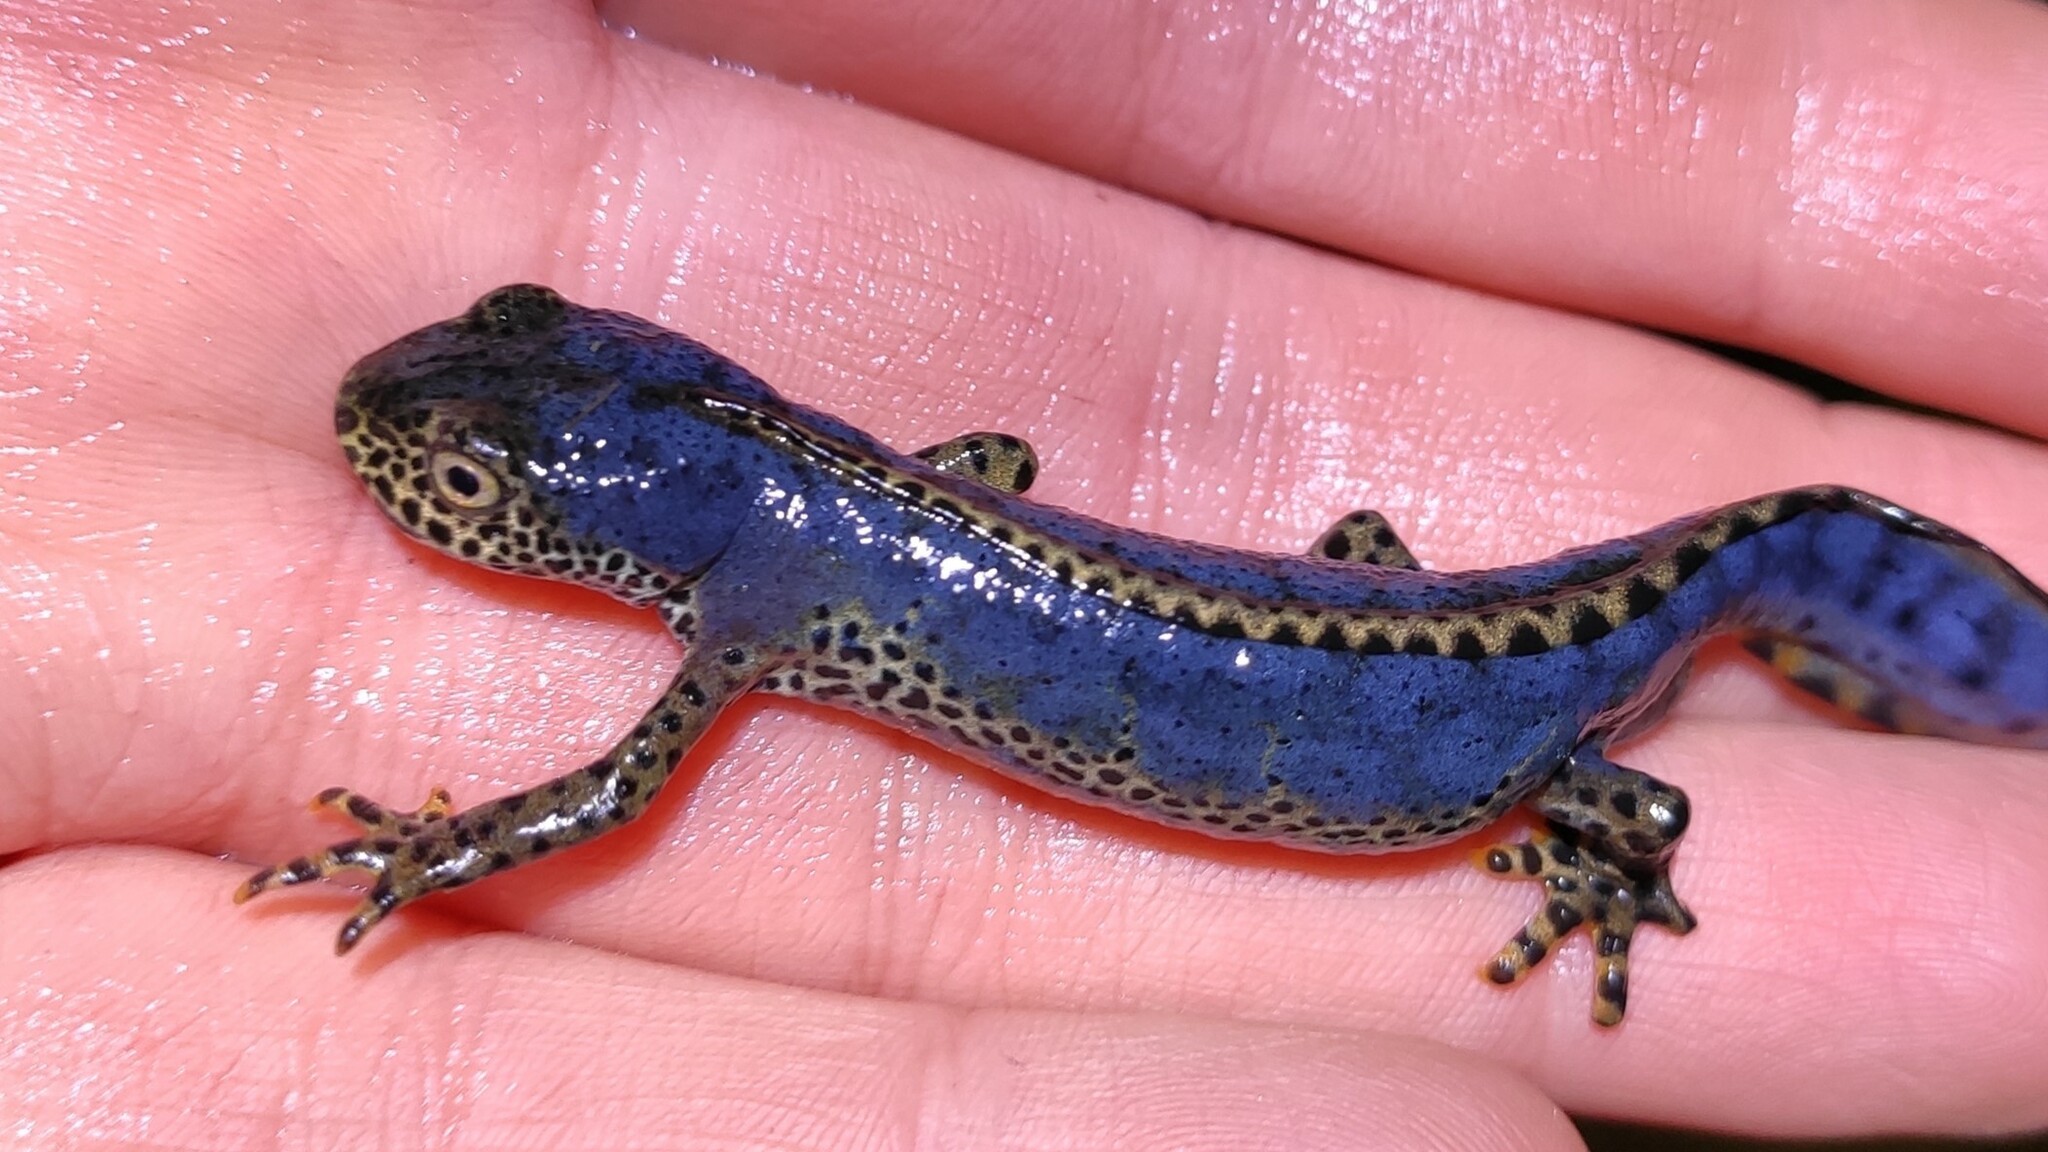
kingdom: Animalia
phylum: Chordata
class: Amphibia
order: Caudata
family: Salamandridae
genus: Ichthyosaura
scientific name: Ichthyosaura alpestris
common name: Alpine newt
